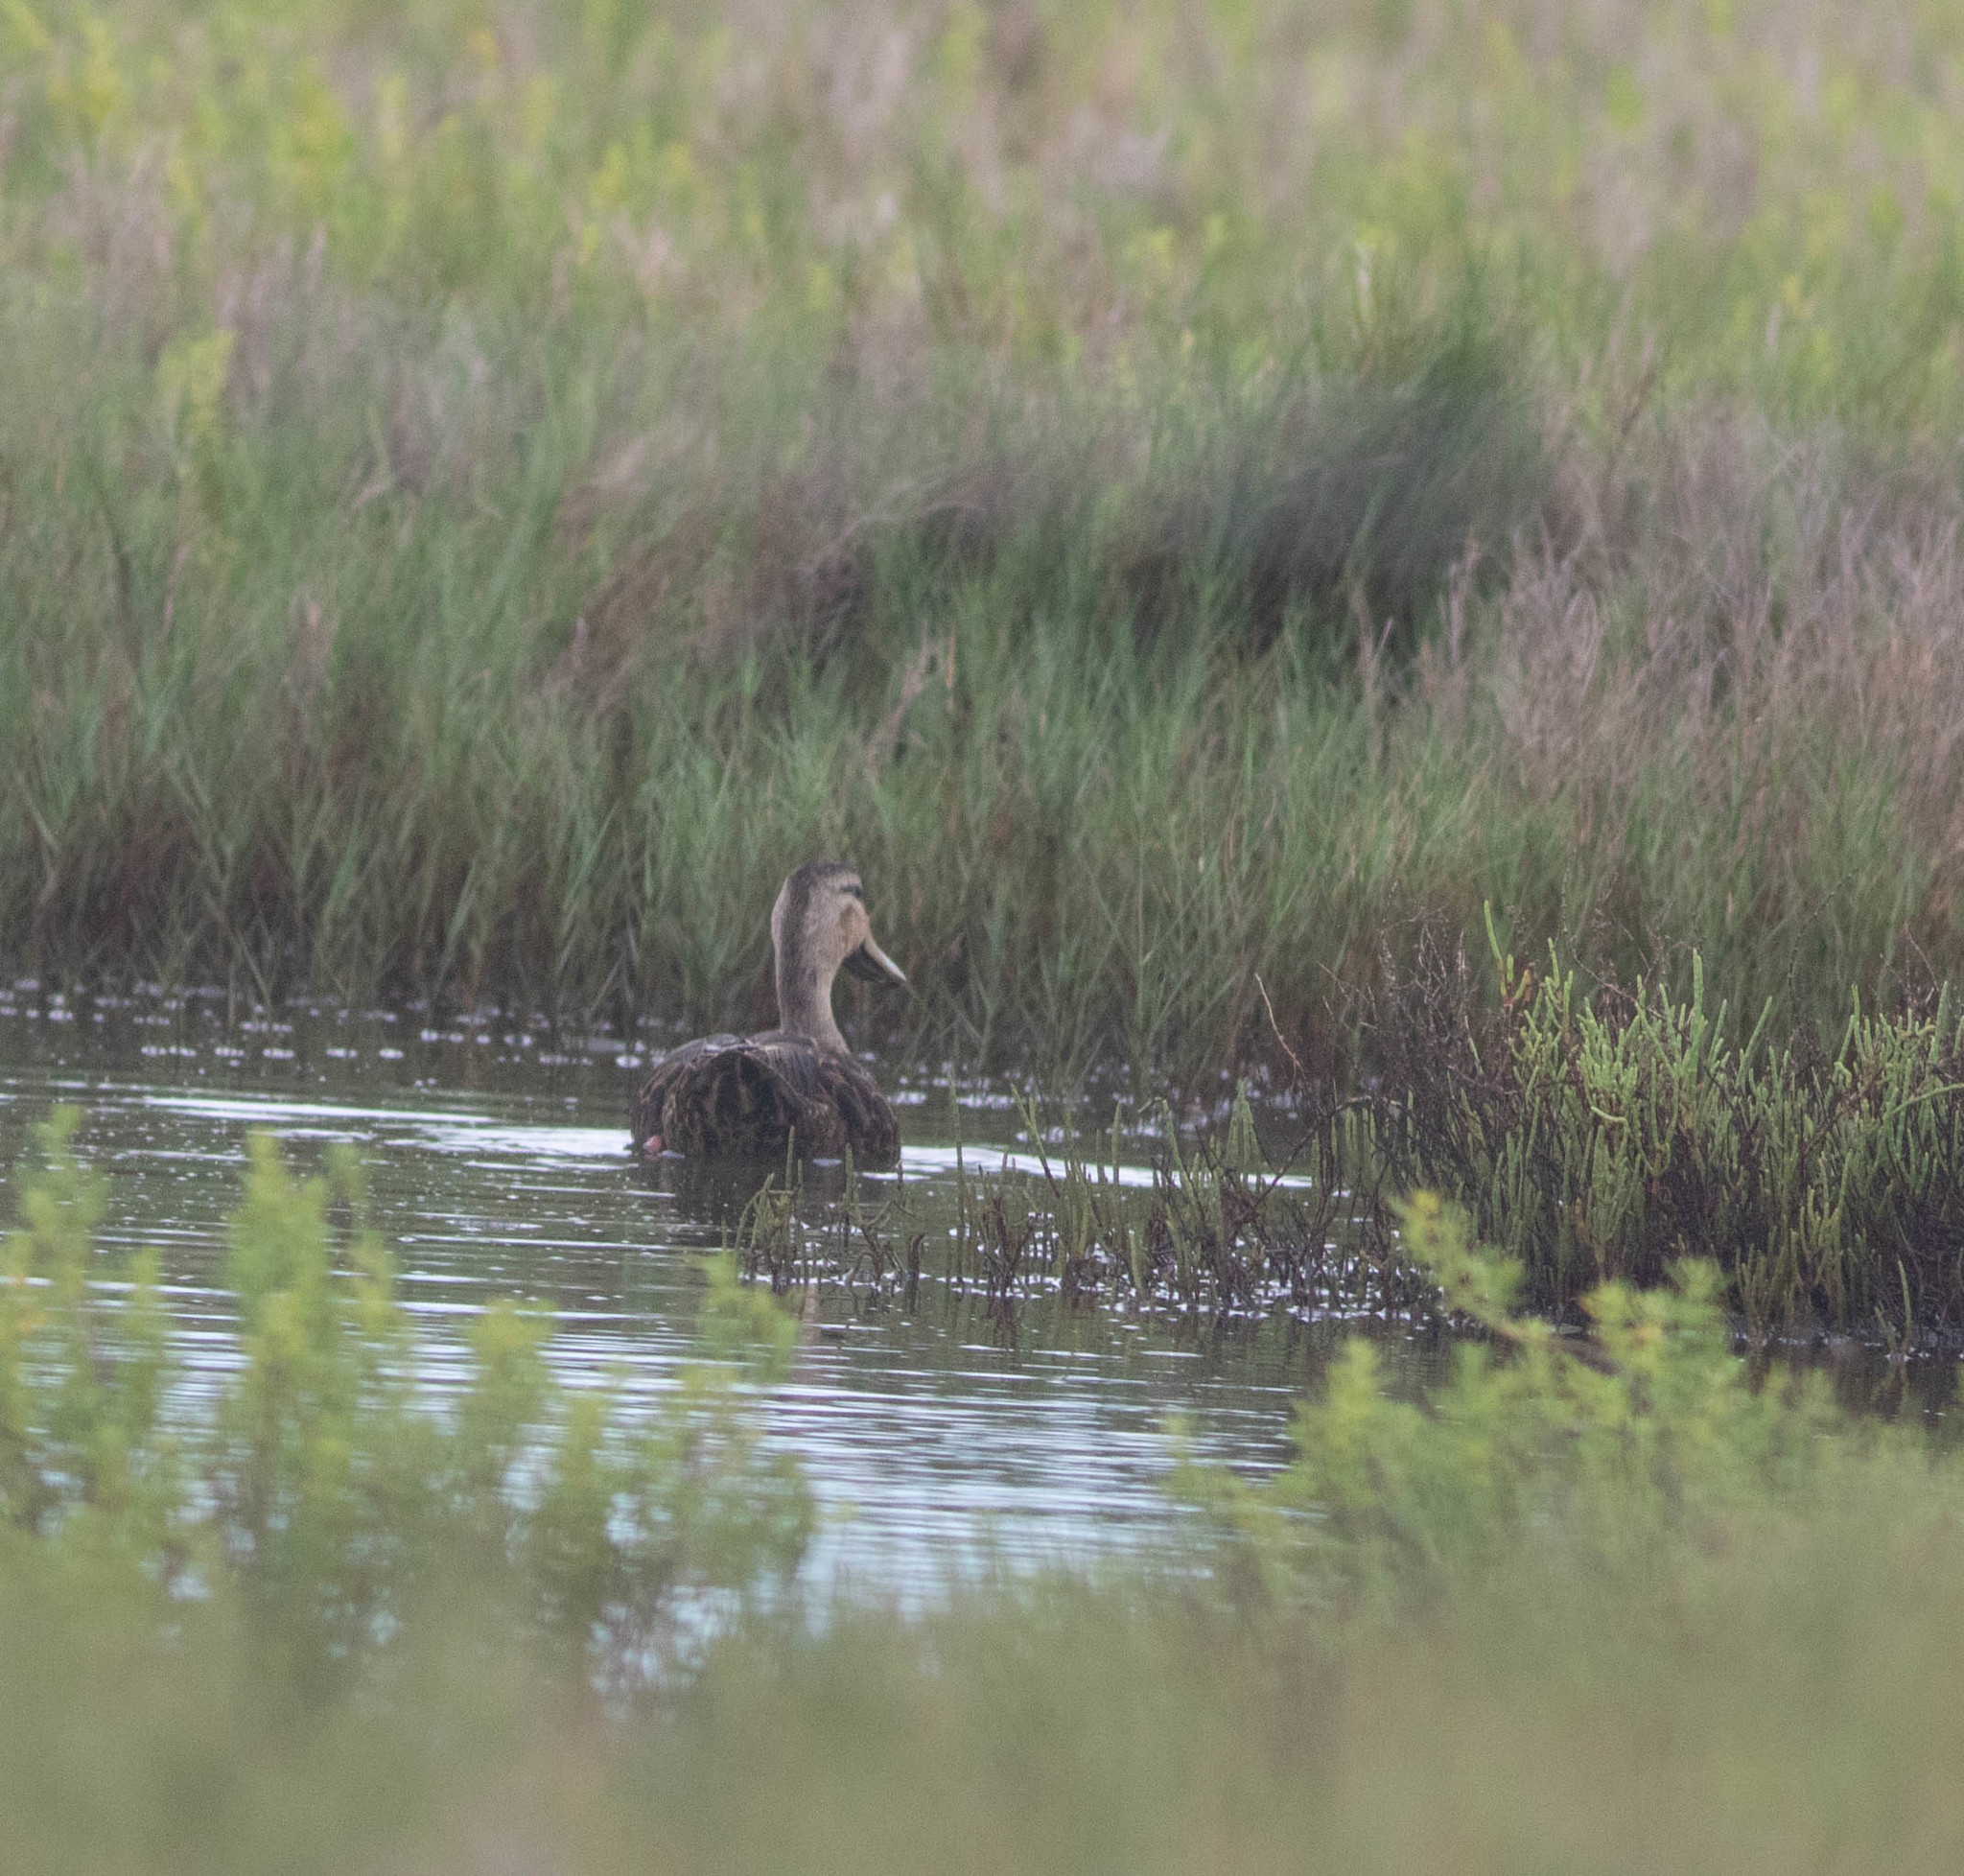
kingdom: Animalia
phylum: Chordata
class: Aves
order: Anseriformes
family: Anatidae
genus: Anas
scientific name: Anas fulvigula
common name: Mottled duck
